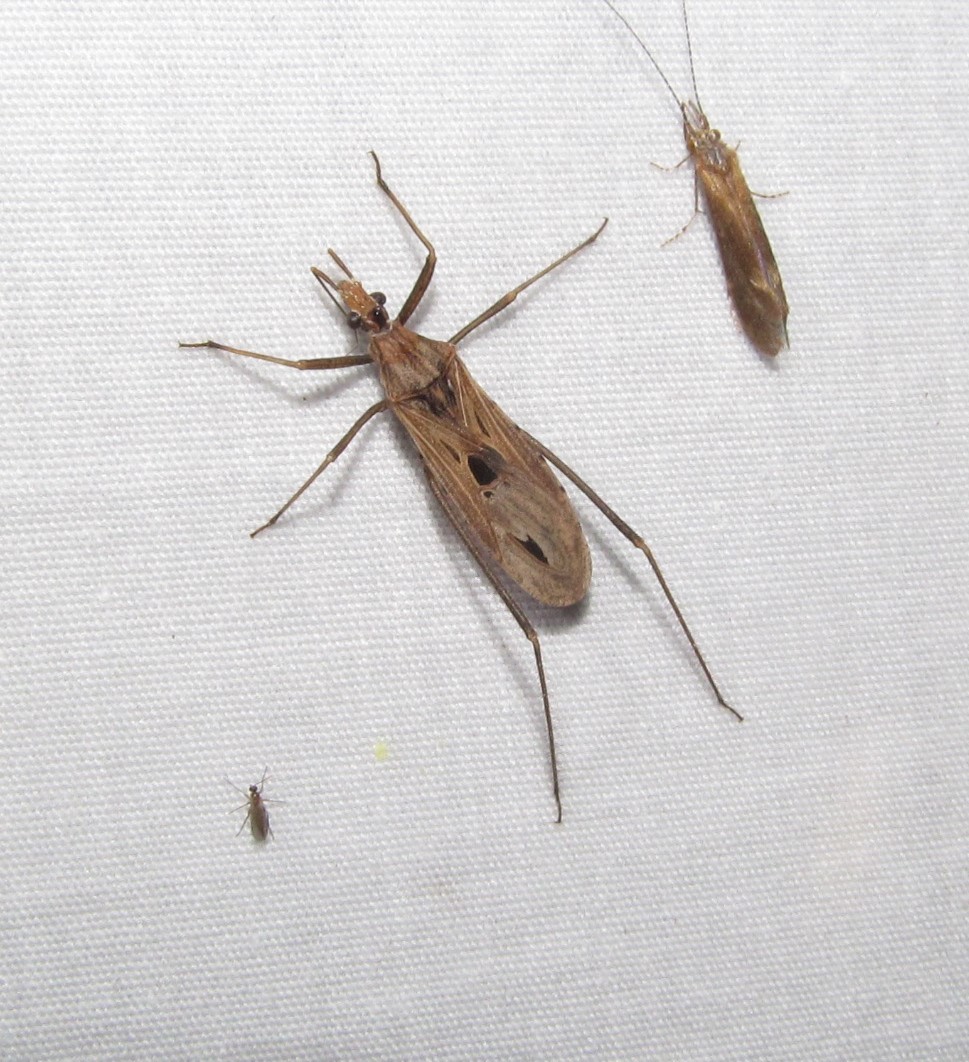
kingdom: Animalia
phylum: Arthropoda
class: Insecta
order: Hemiptera
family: Reduviidae
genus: Narvesus
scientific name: Narvesus carolinensis
